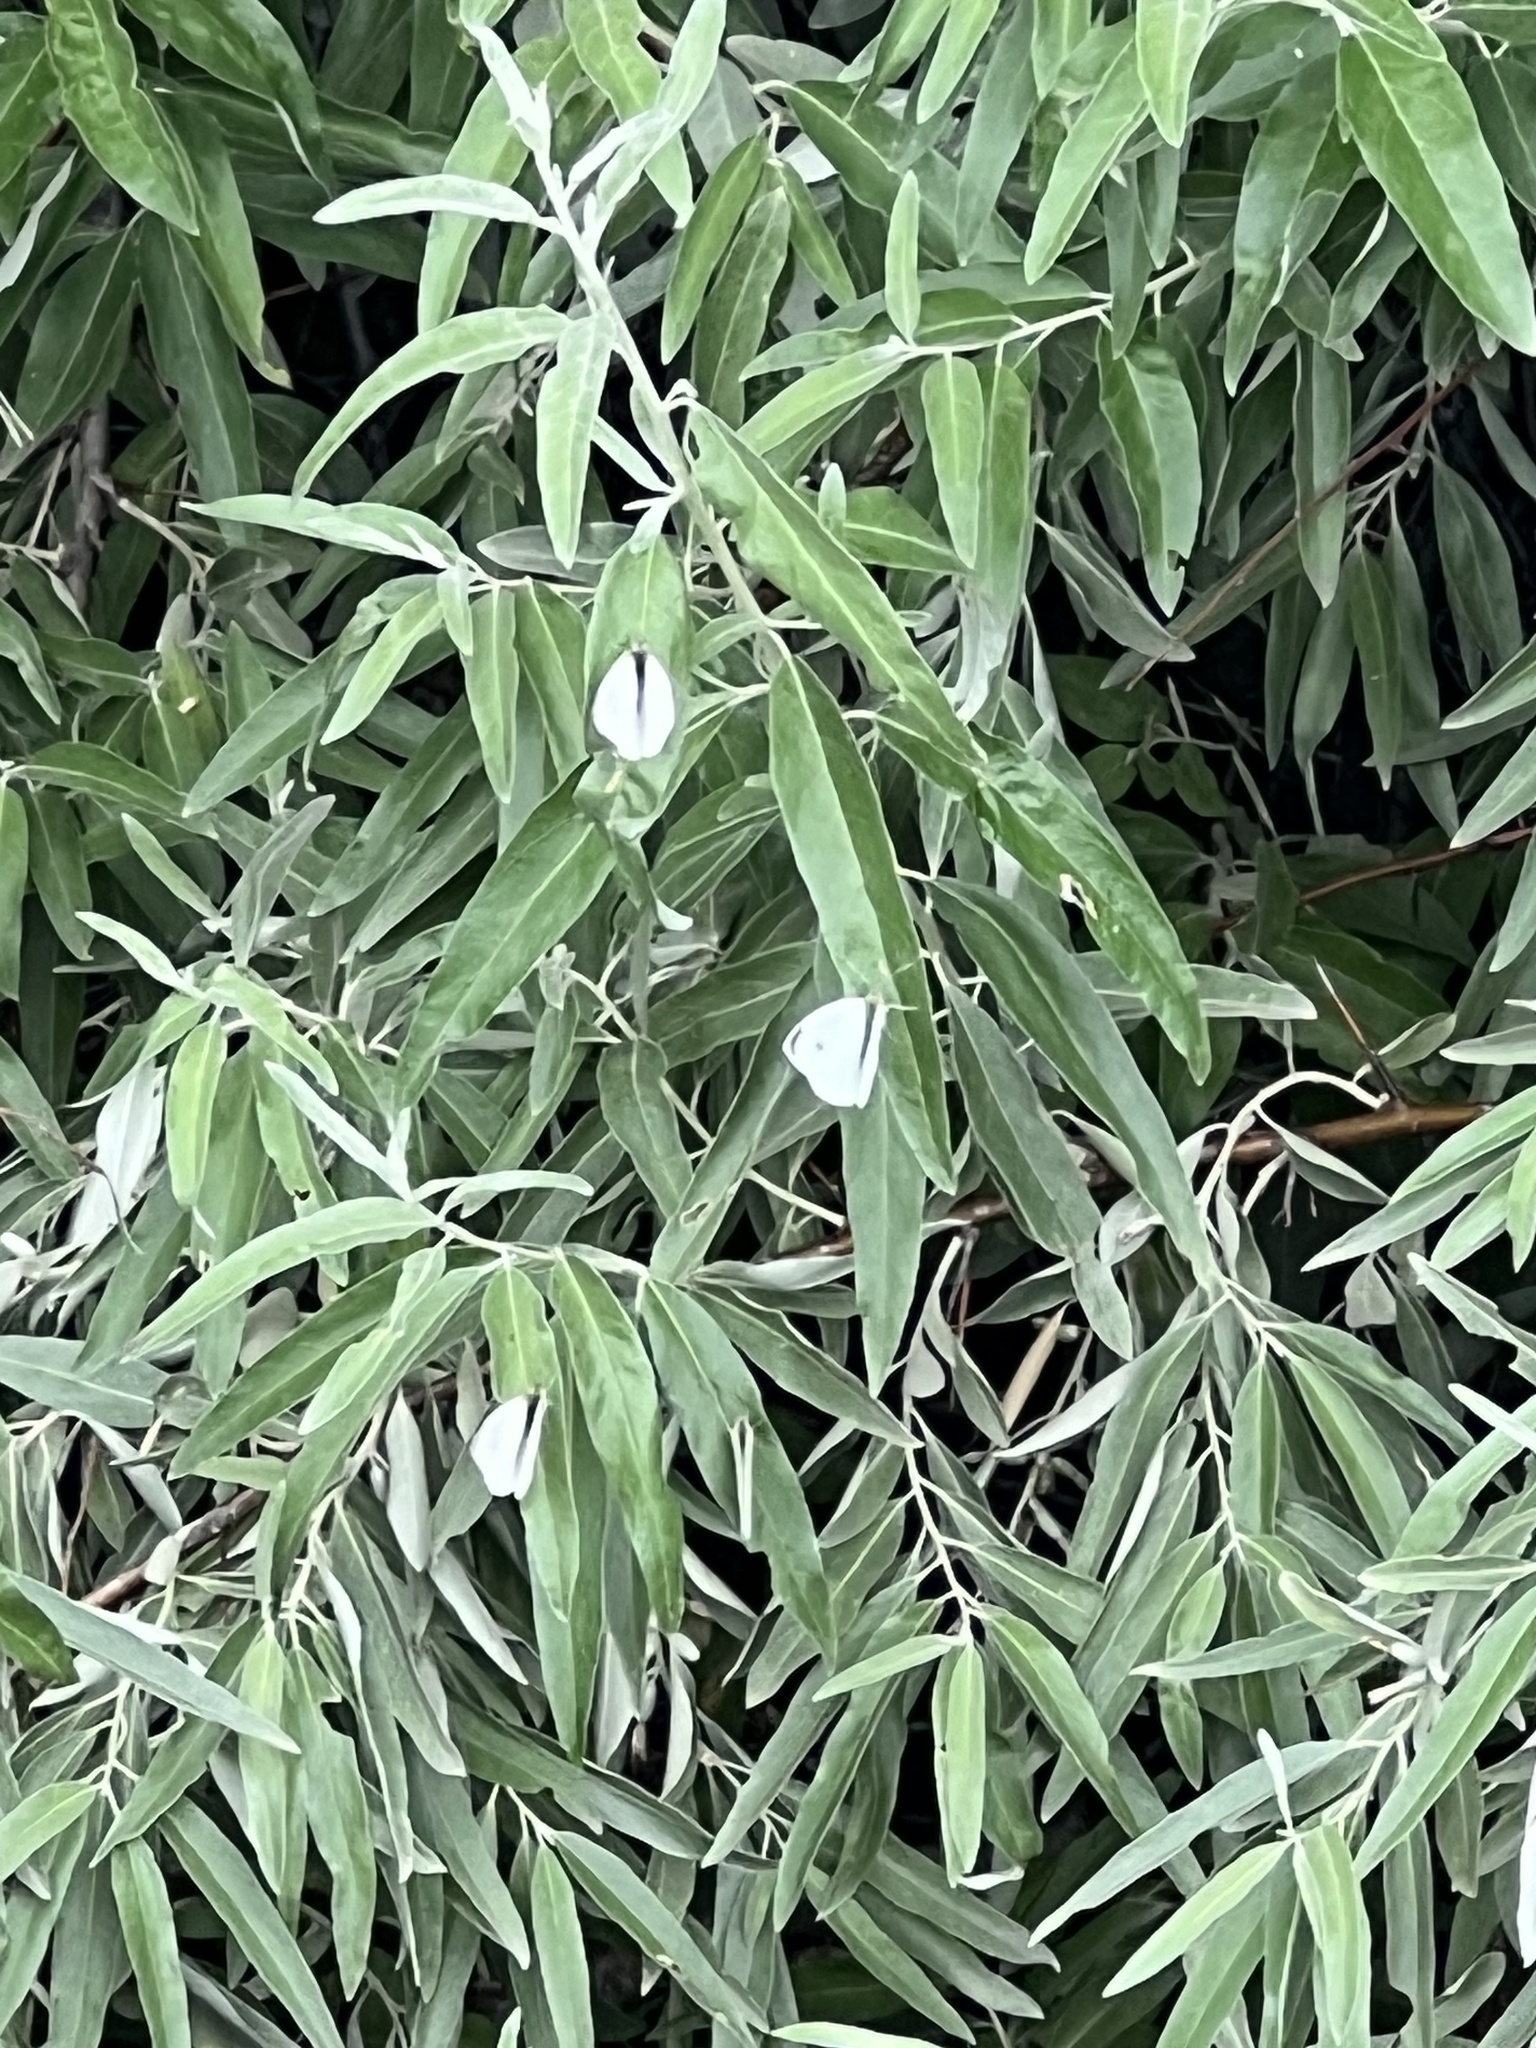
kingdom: Animalia
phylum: Arthropoda
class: Insecta
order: Lepidoptera
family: Pieridae
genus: Pieris
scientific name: Pieris rapae
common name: Small white
